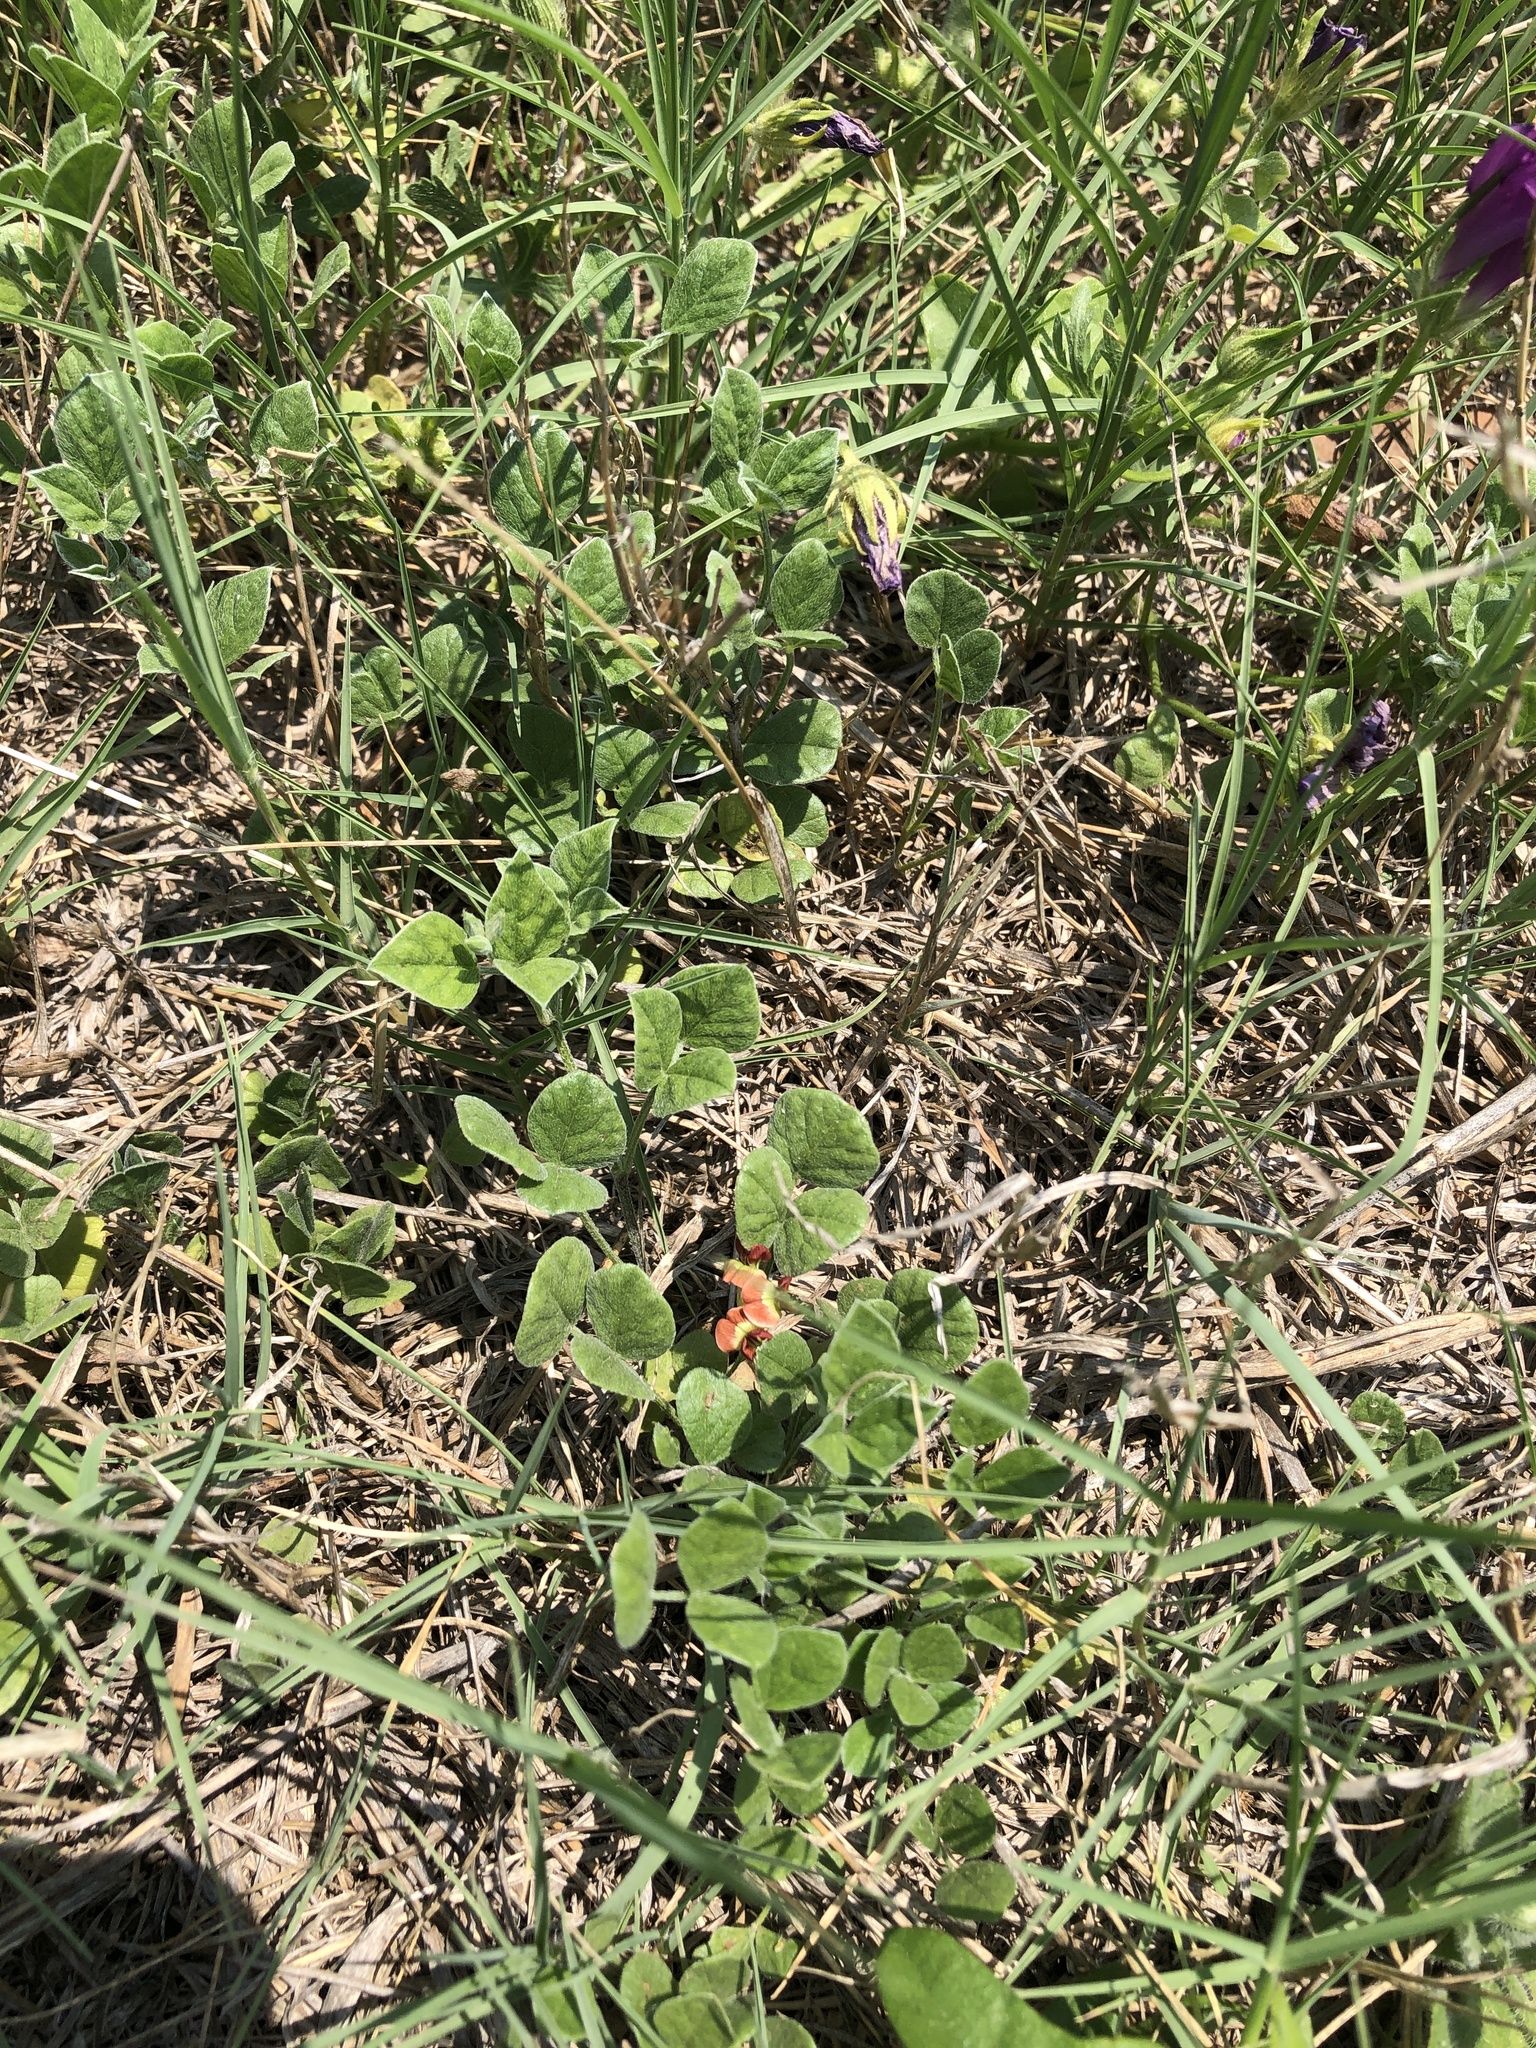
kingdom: Plantae
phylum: Tracheophyta
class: Magnoliopsida
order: Fabales
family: Fabaceae
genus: Pediomelum
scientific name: Pediomelum rhombifolium
